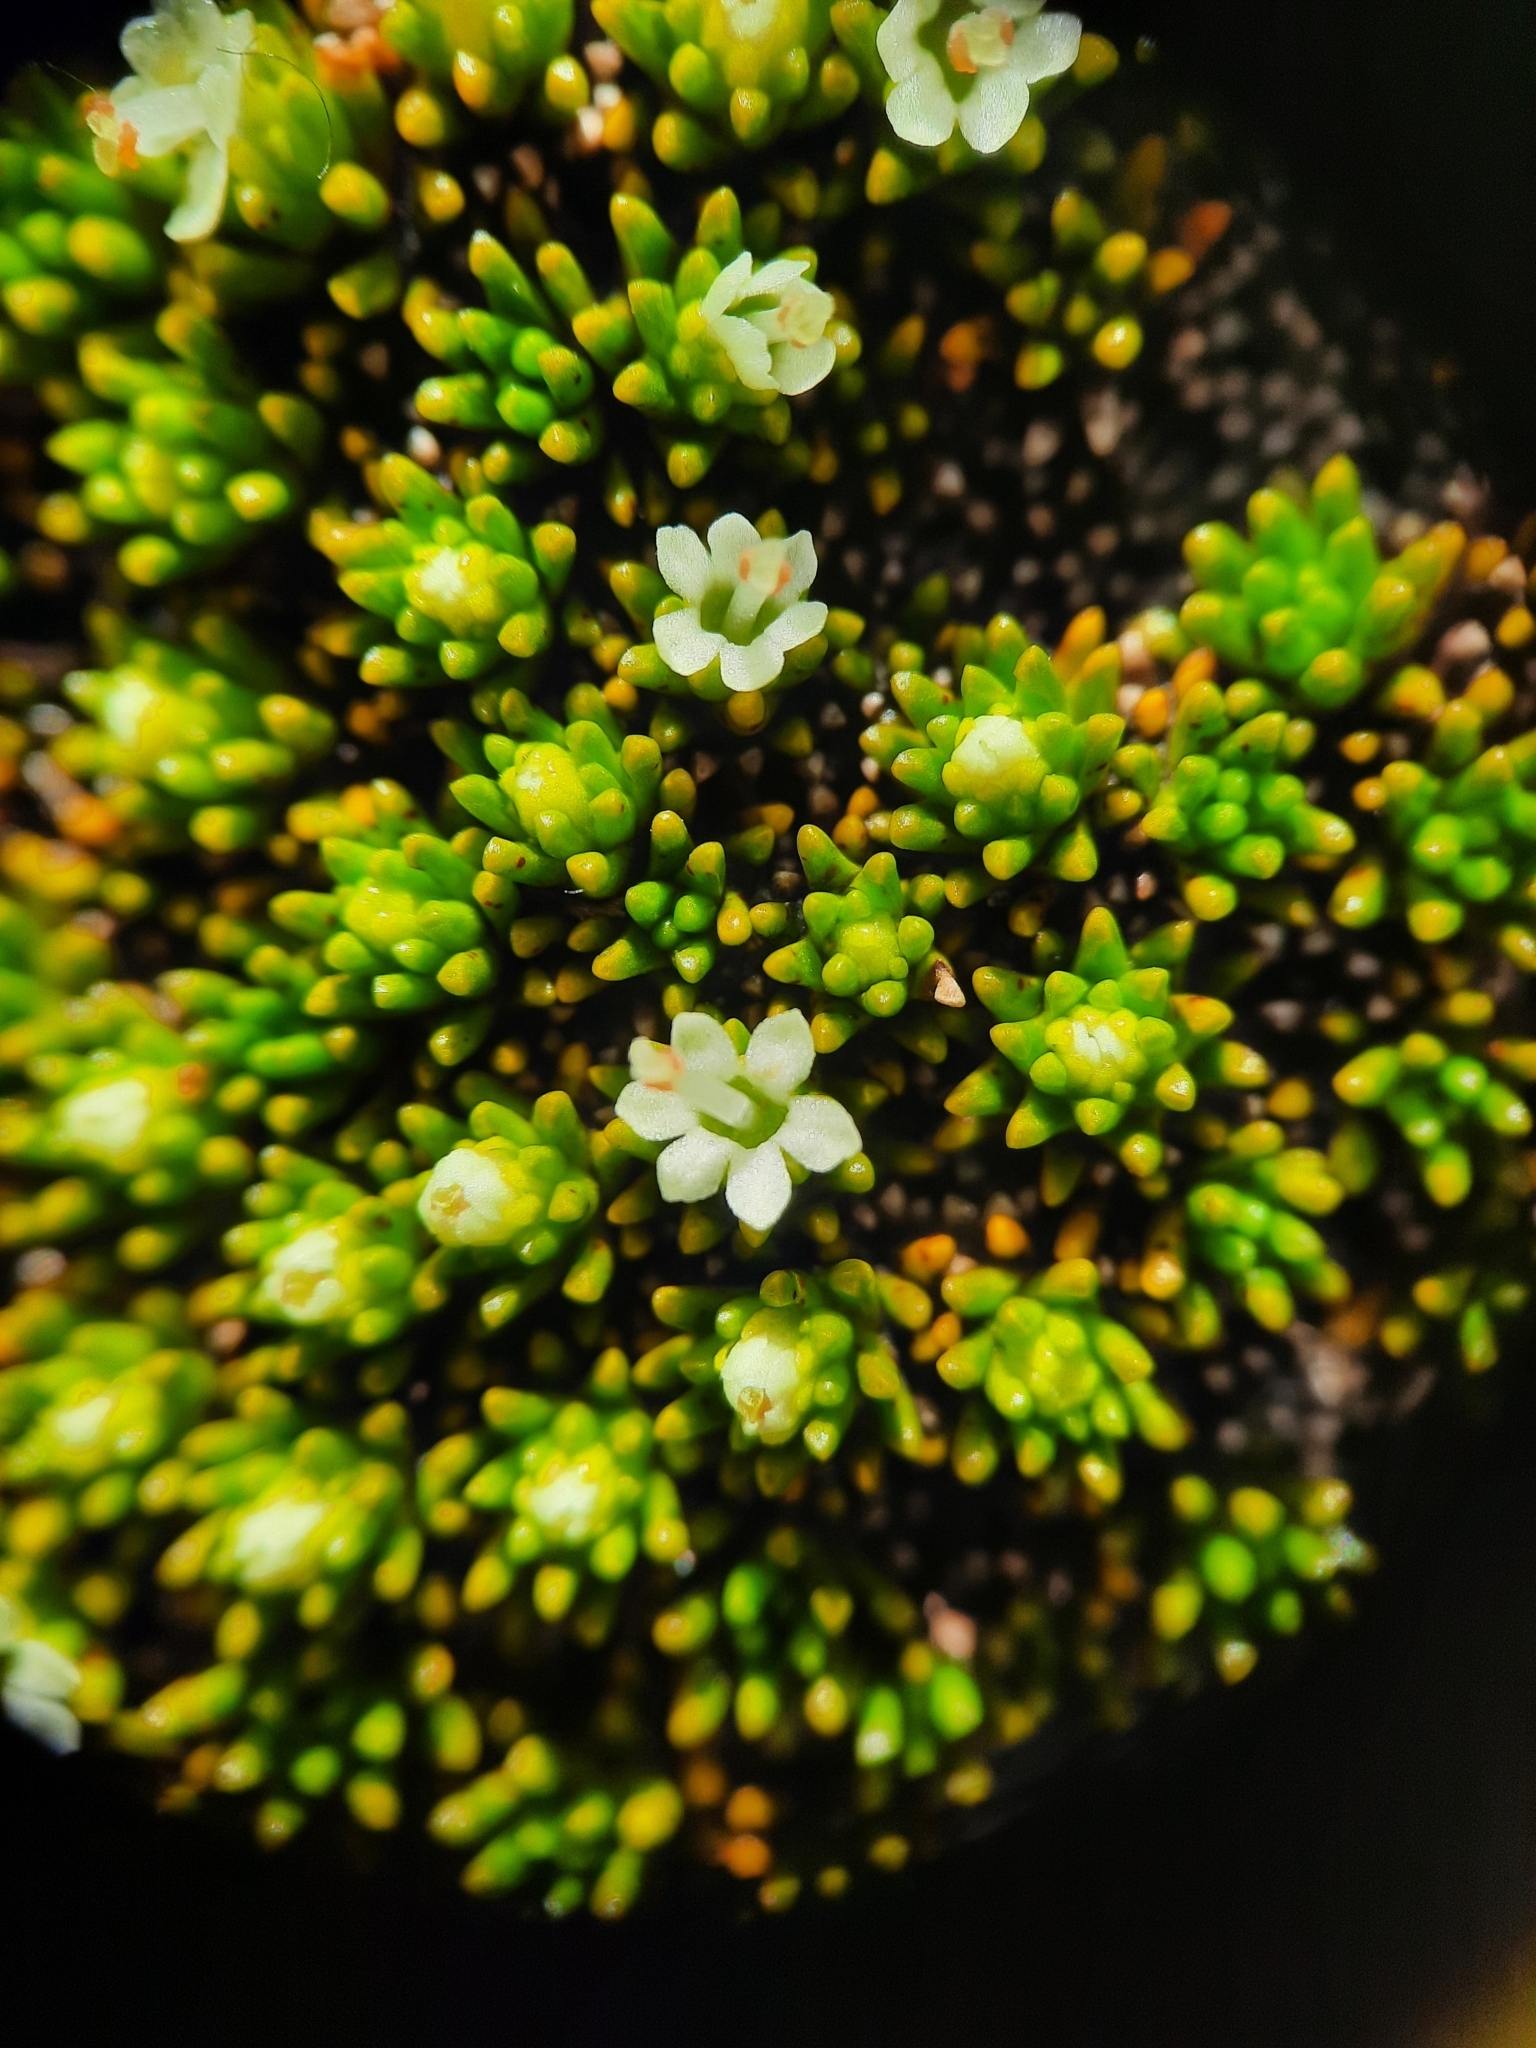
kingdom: Plantae
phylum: Tracheophyta
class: Magnoliopsida
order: Asterales
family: Stylidiaceae
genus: Phyllachne
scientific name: Phyllachne colensoi
